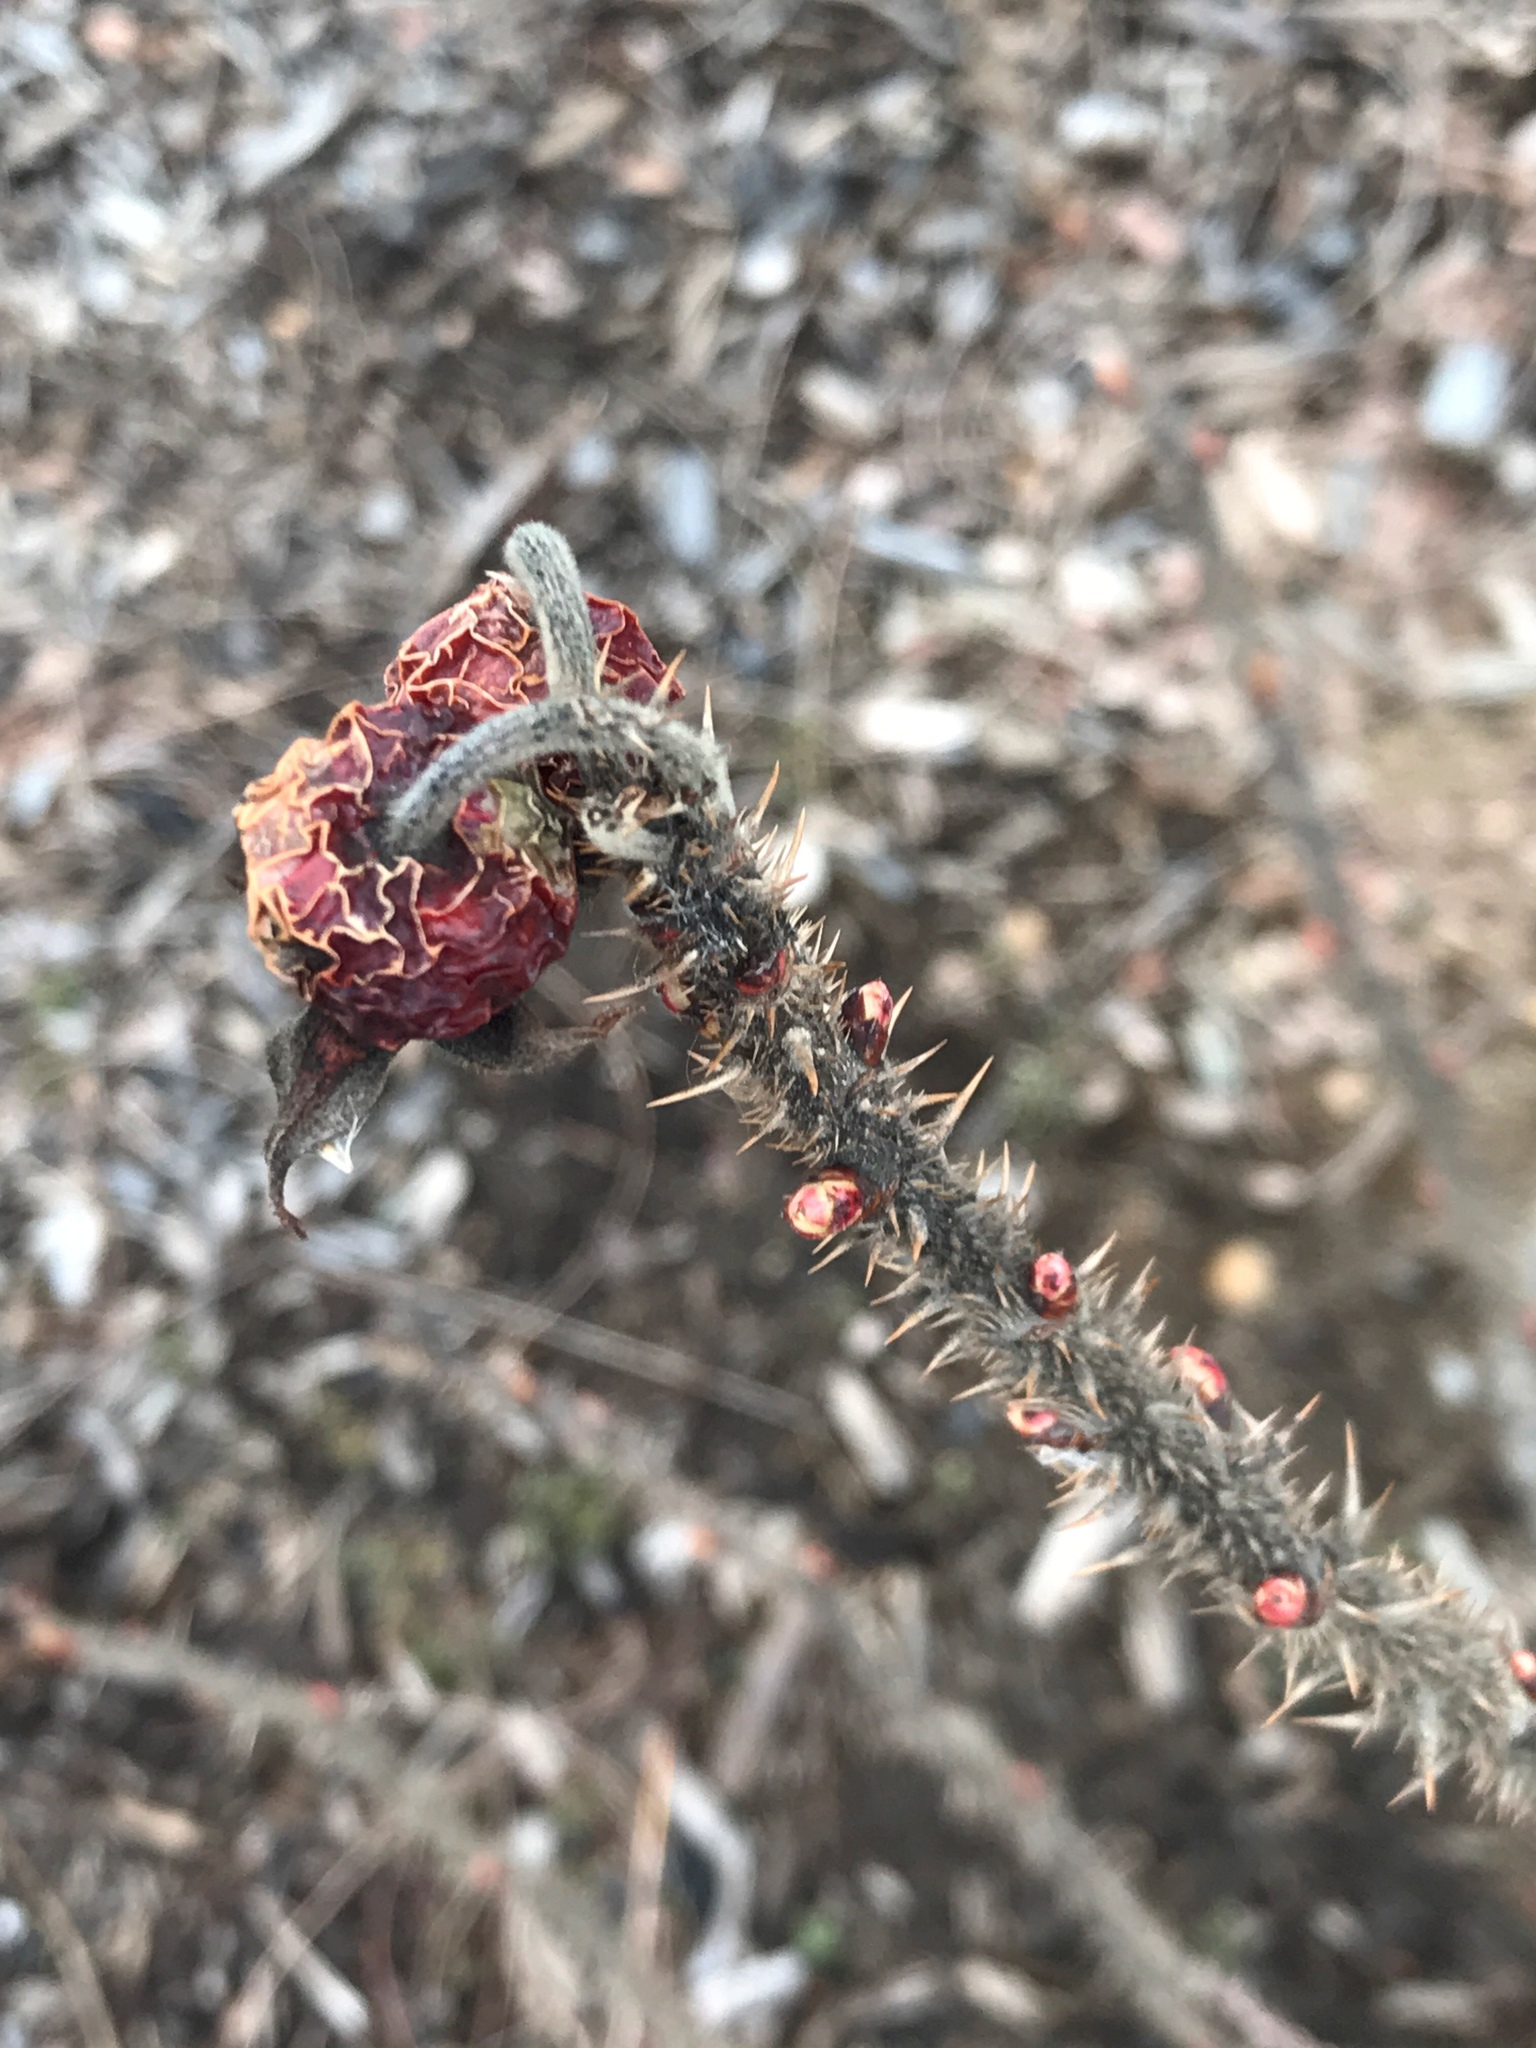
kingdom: Plantae
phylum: Tracheophyta
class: Magnoliopsida
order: Rosales
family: Rosaceae
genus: Rosa
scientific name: Rosa rugosa
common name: Japanese rose
